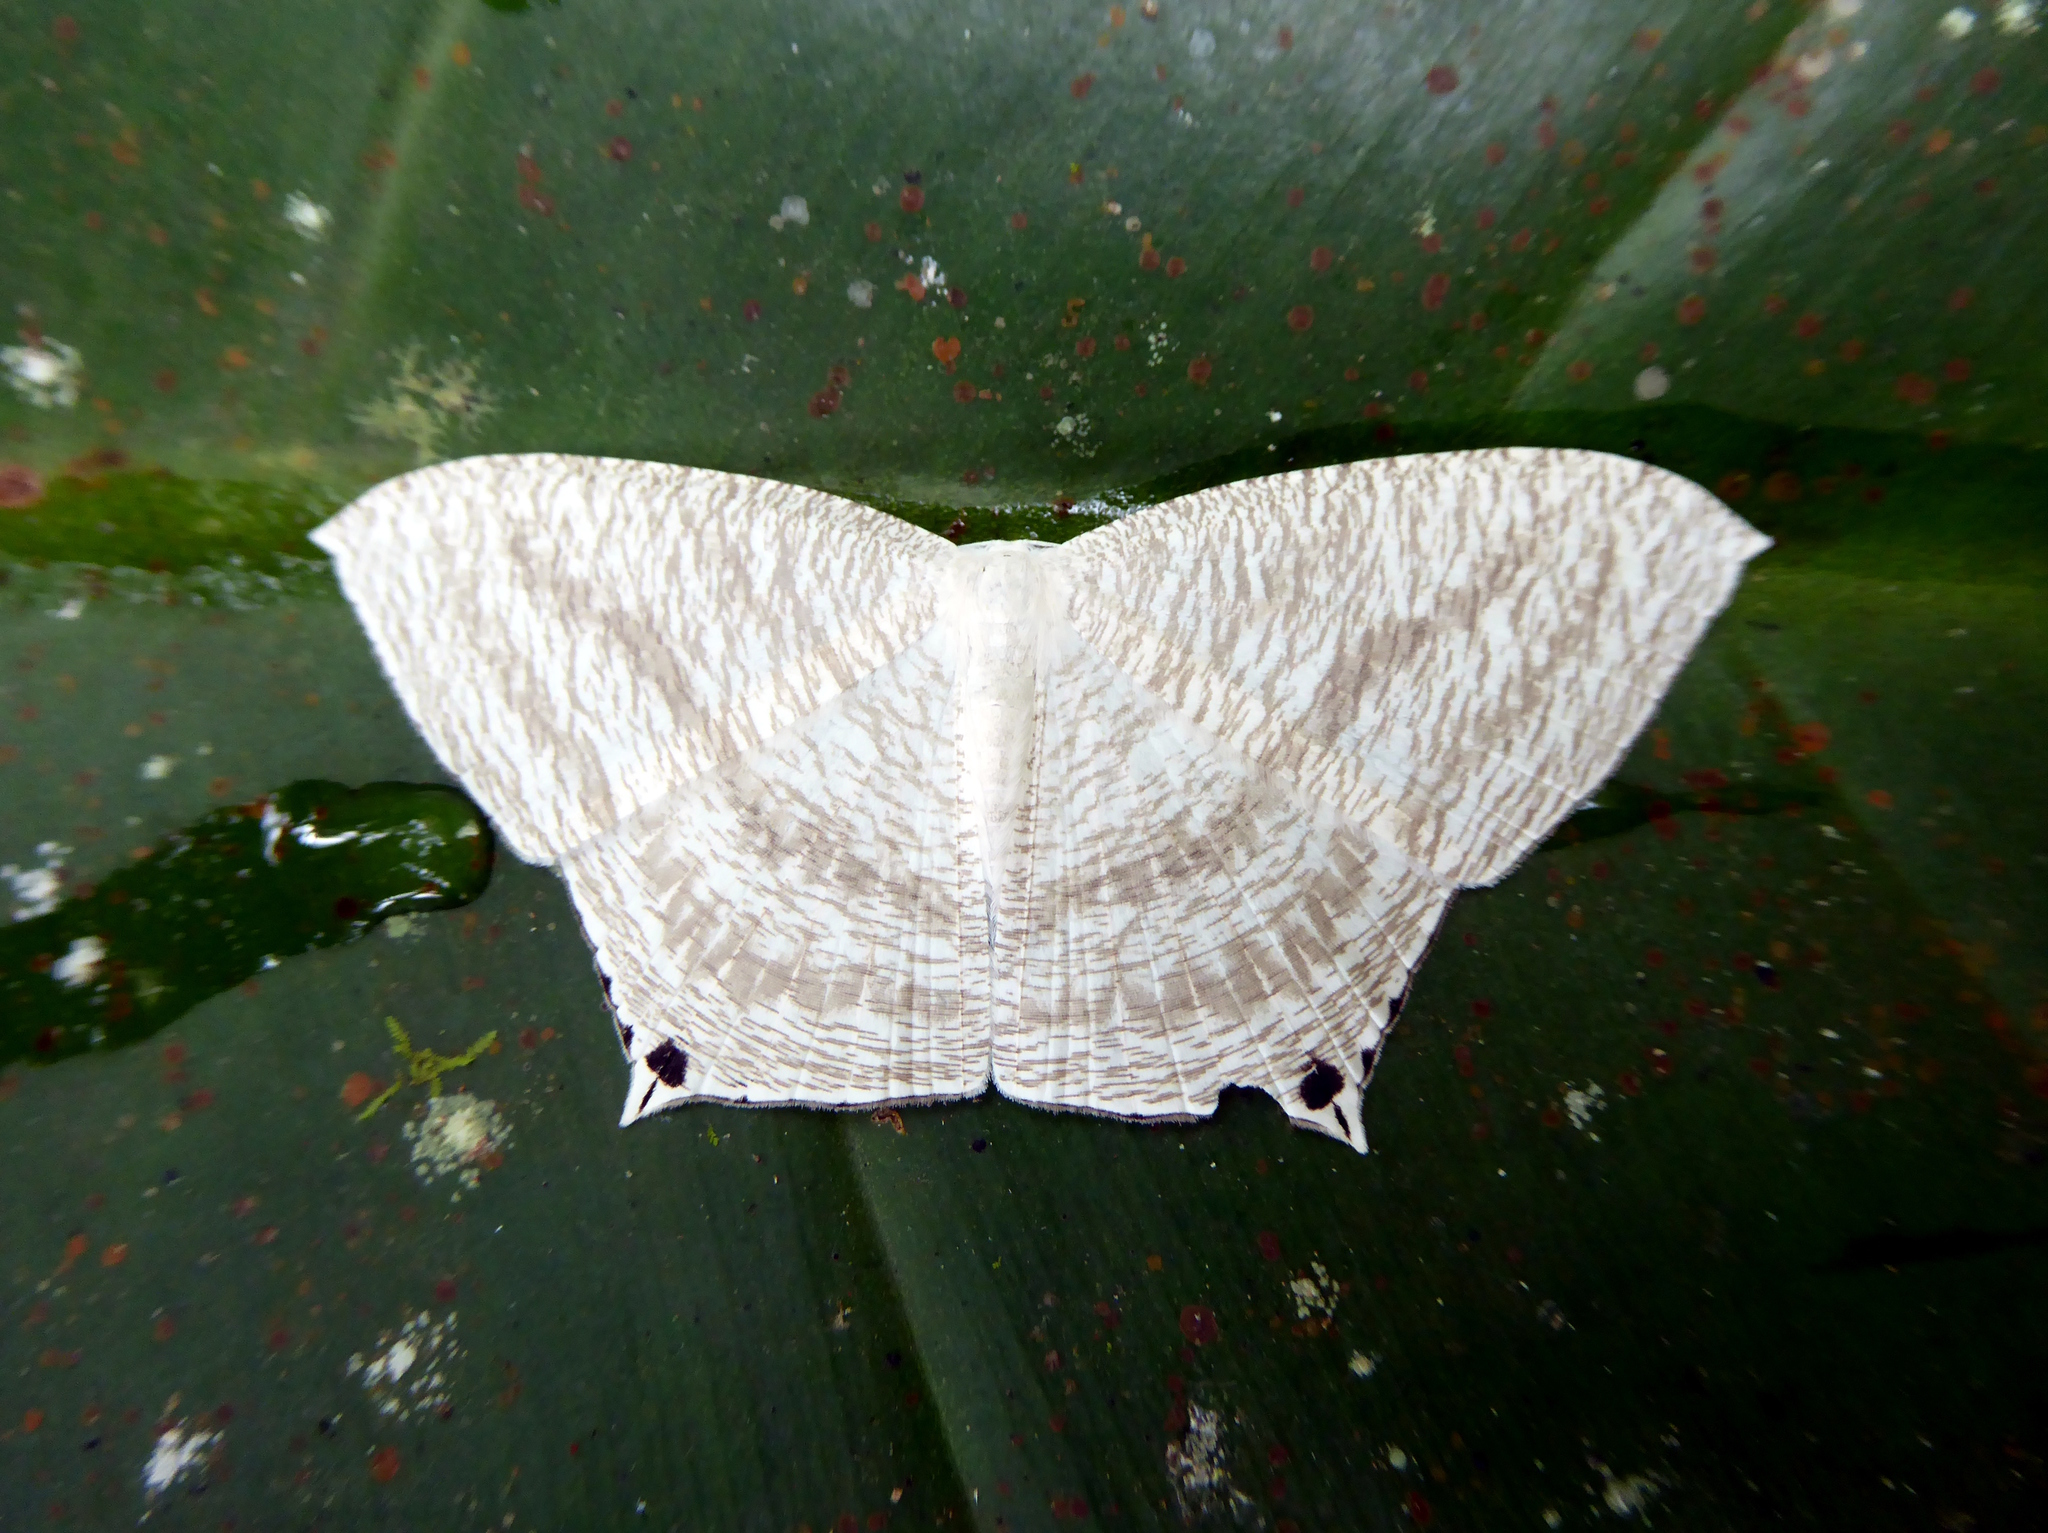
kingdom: Animalia
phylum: Arthropoda
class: Insecta
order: Lepidoptera
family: Uraniidae
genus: Micronia
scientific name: Micronia aculeata
